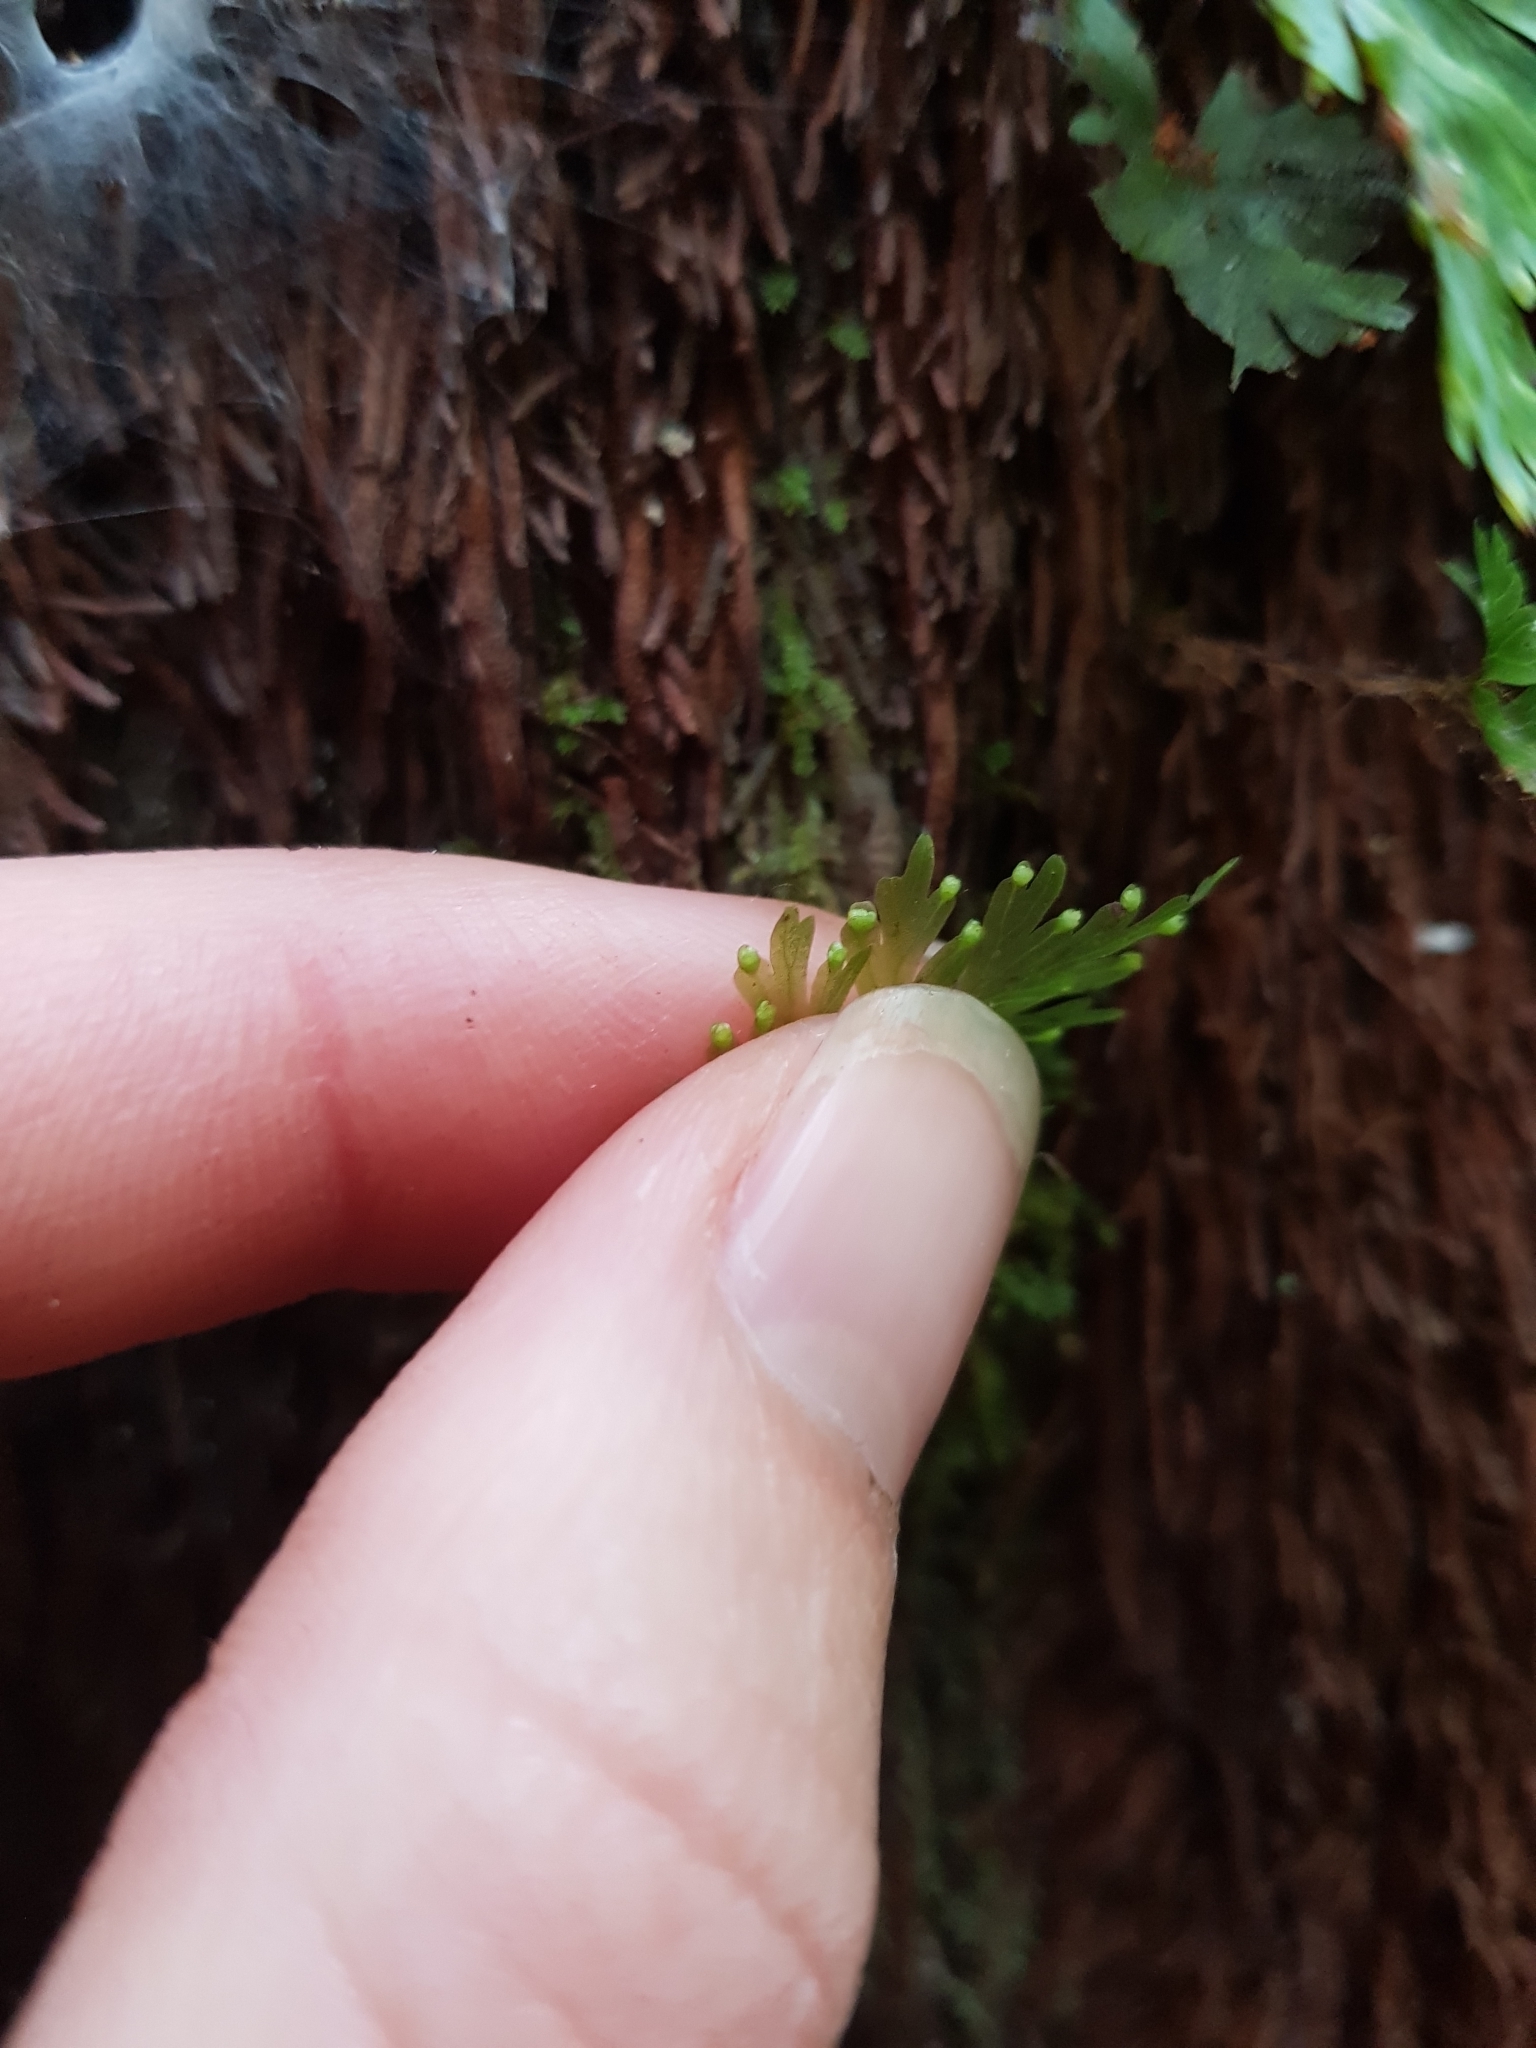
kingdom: Plantae
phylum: Tracheophyta
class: Polypodiopsida
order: Hymenophyllales
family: Hymenophyllaceae
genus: Hymenophyllum
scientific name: Hymenophyllum flabellatum
